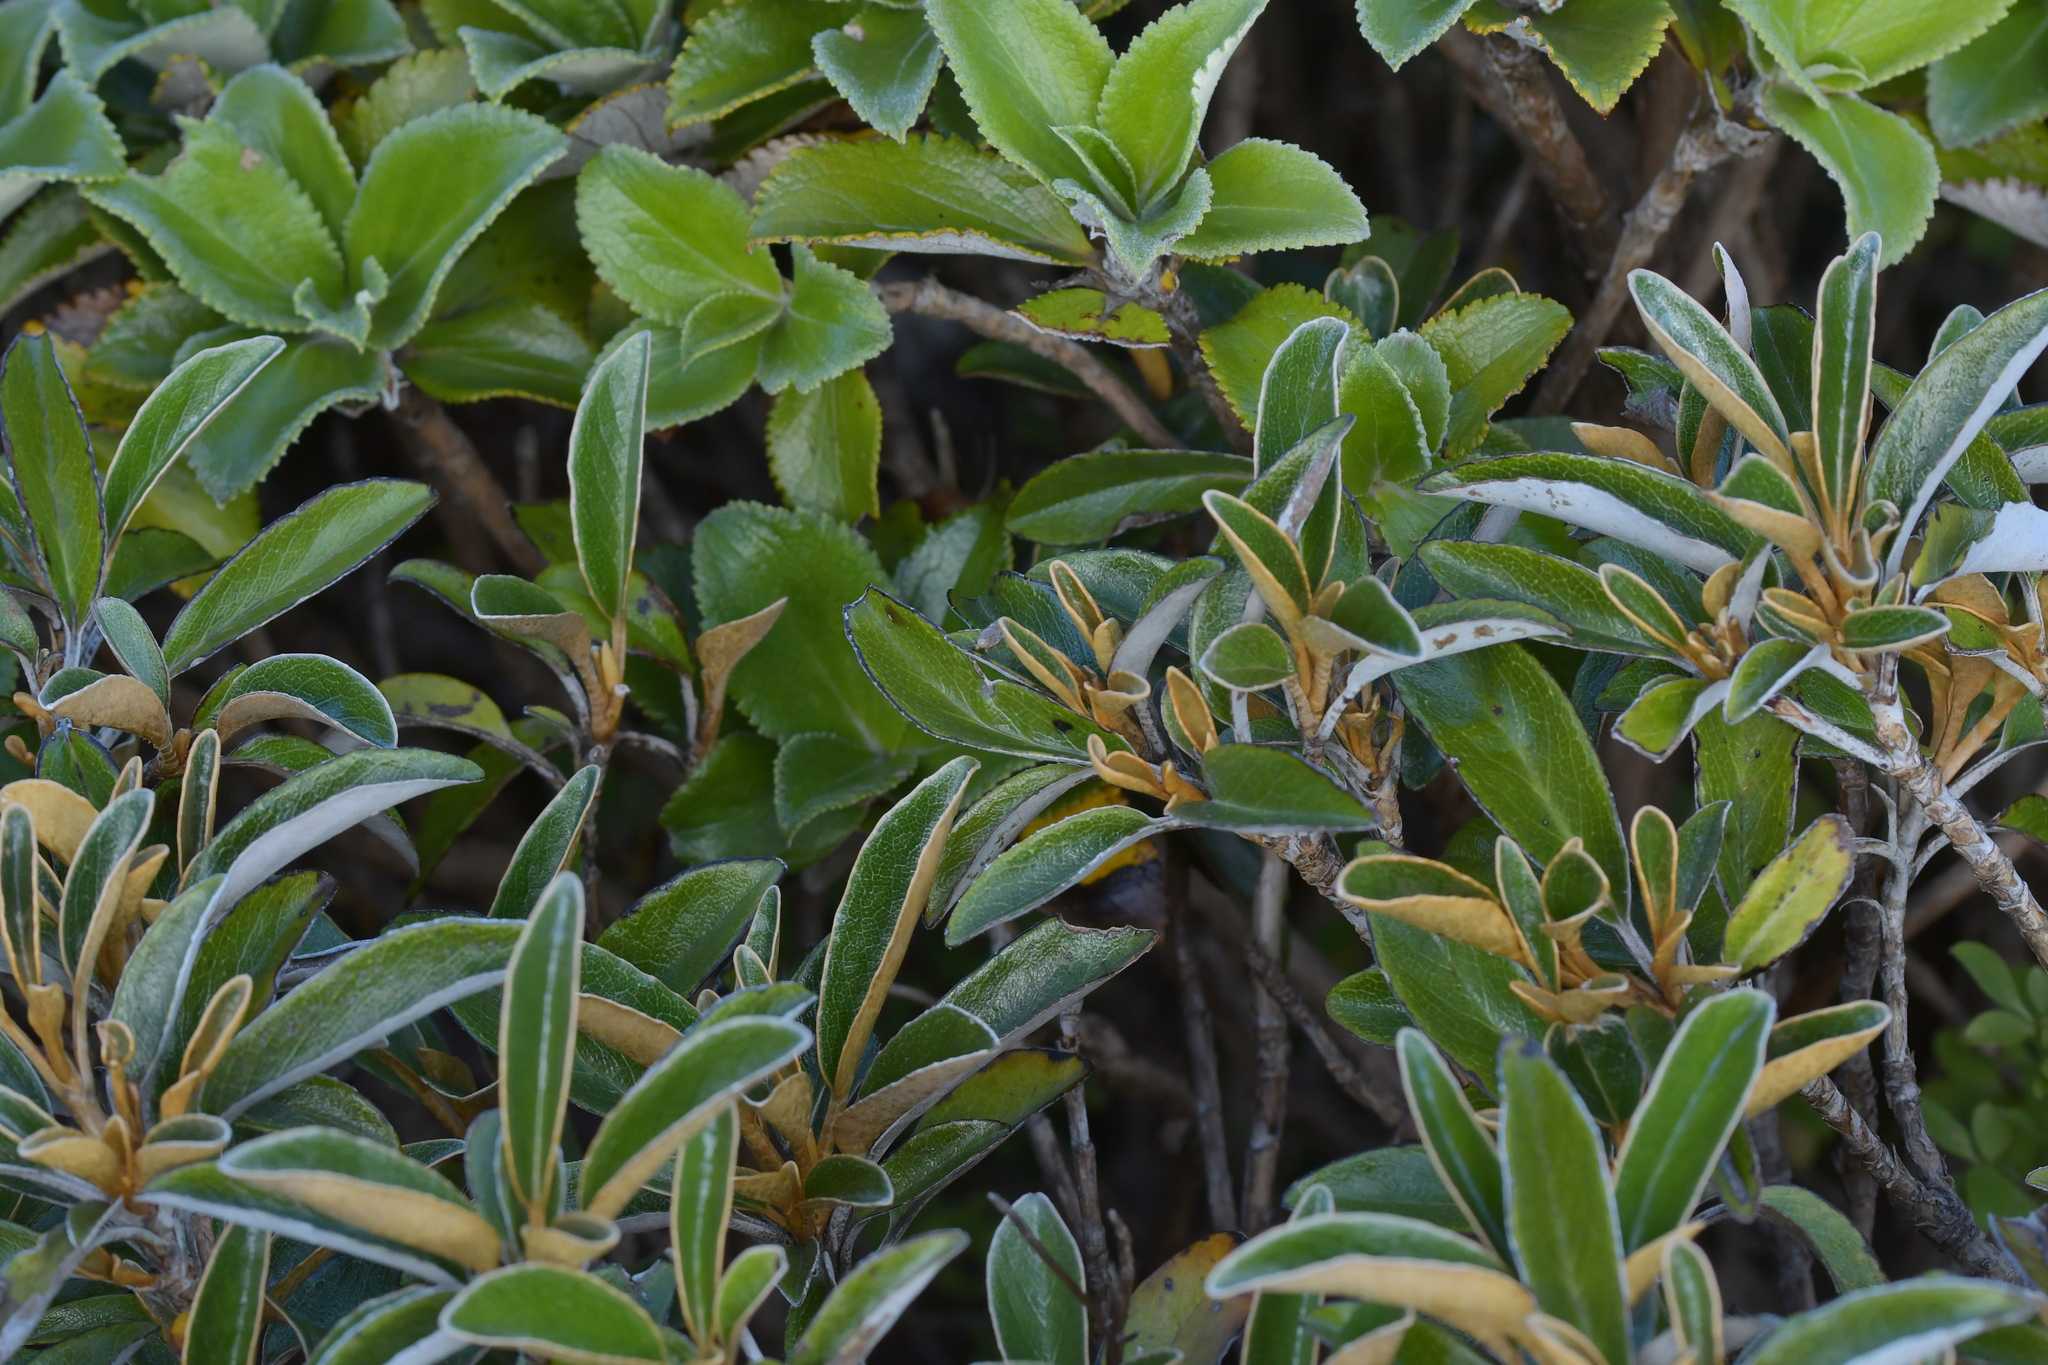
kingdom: Plantae
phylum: Tracheophyta
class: Magnoliopsida
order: Asterales
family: Asteraceae
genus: Brachyglottis
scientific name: Brachyglottis elaeagnifolia
